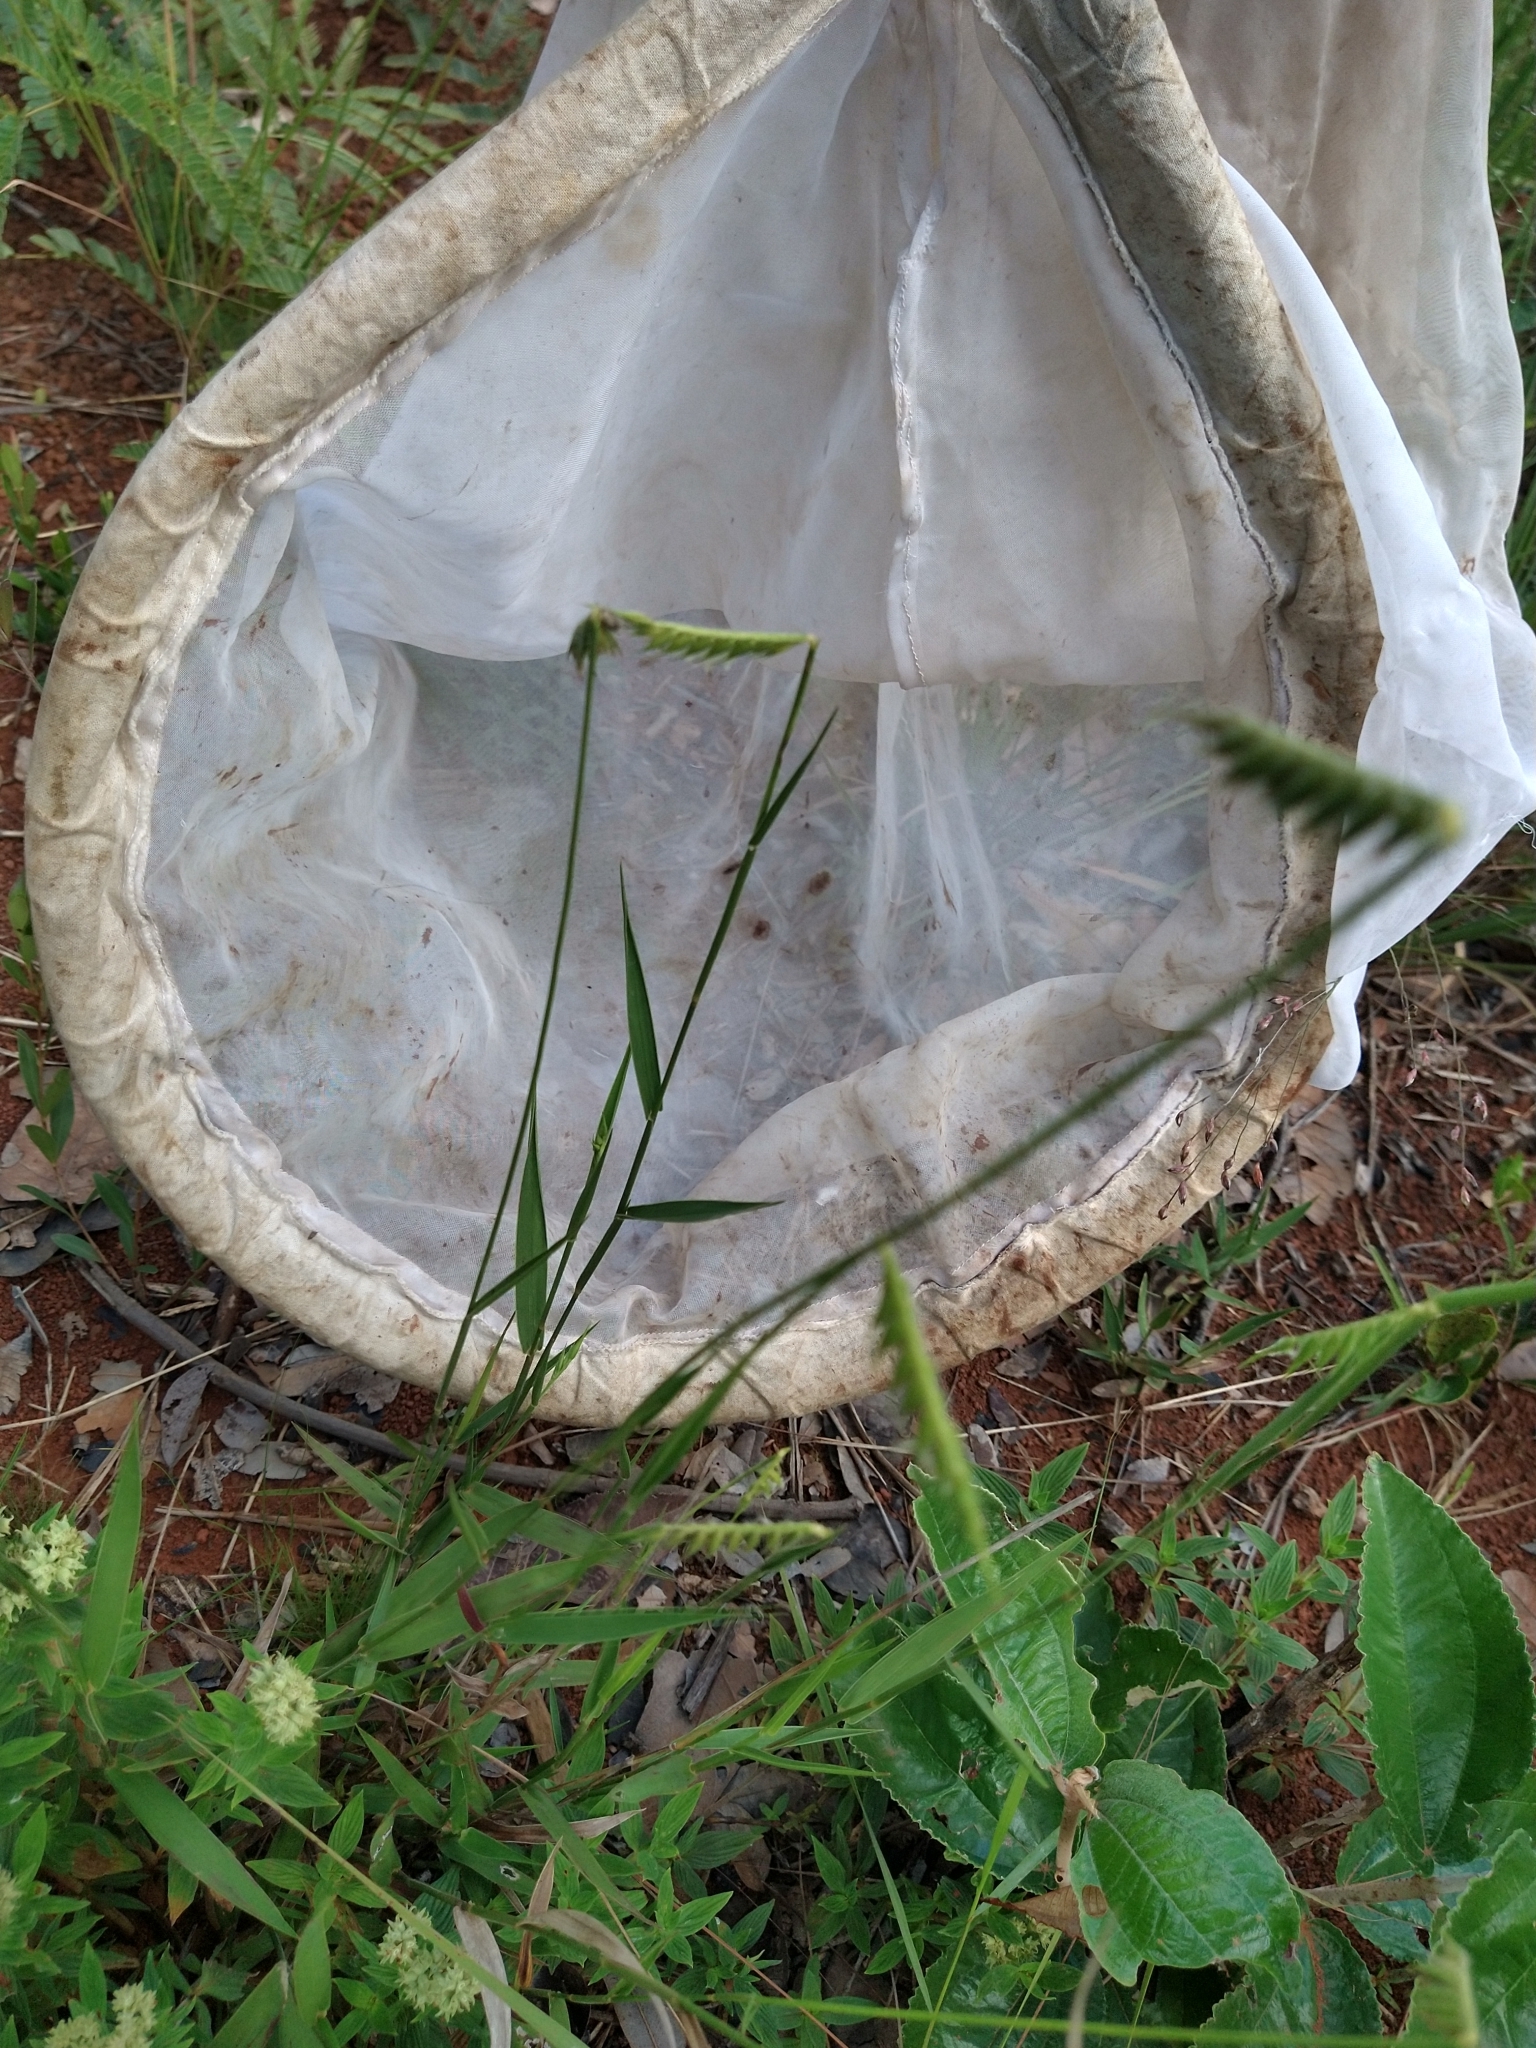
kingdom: Plantae
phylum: Tracheophyta
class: Liliopsida
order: Poales
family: Poaceae
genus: Echinolaena
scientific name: Echinolaena inflexa
